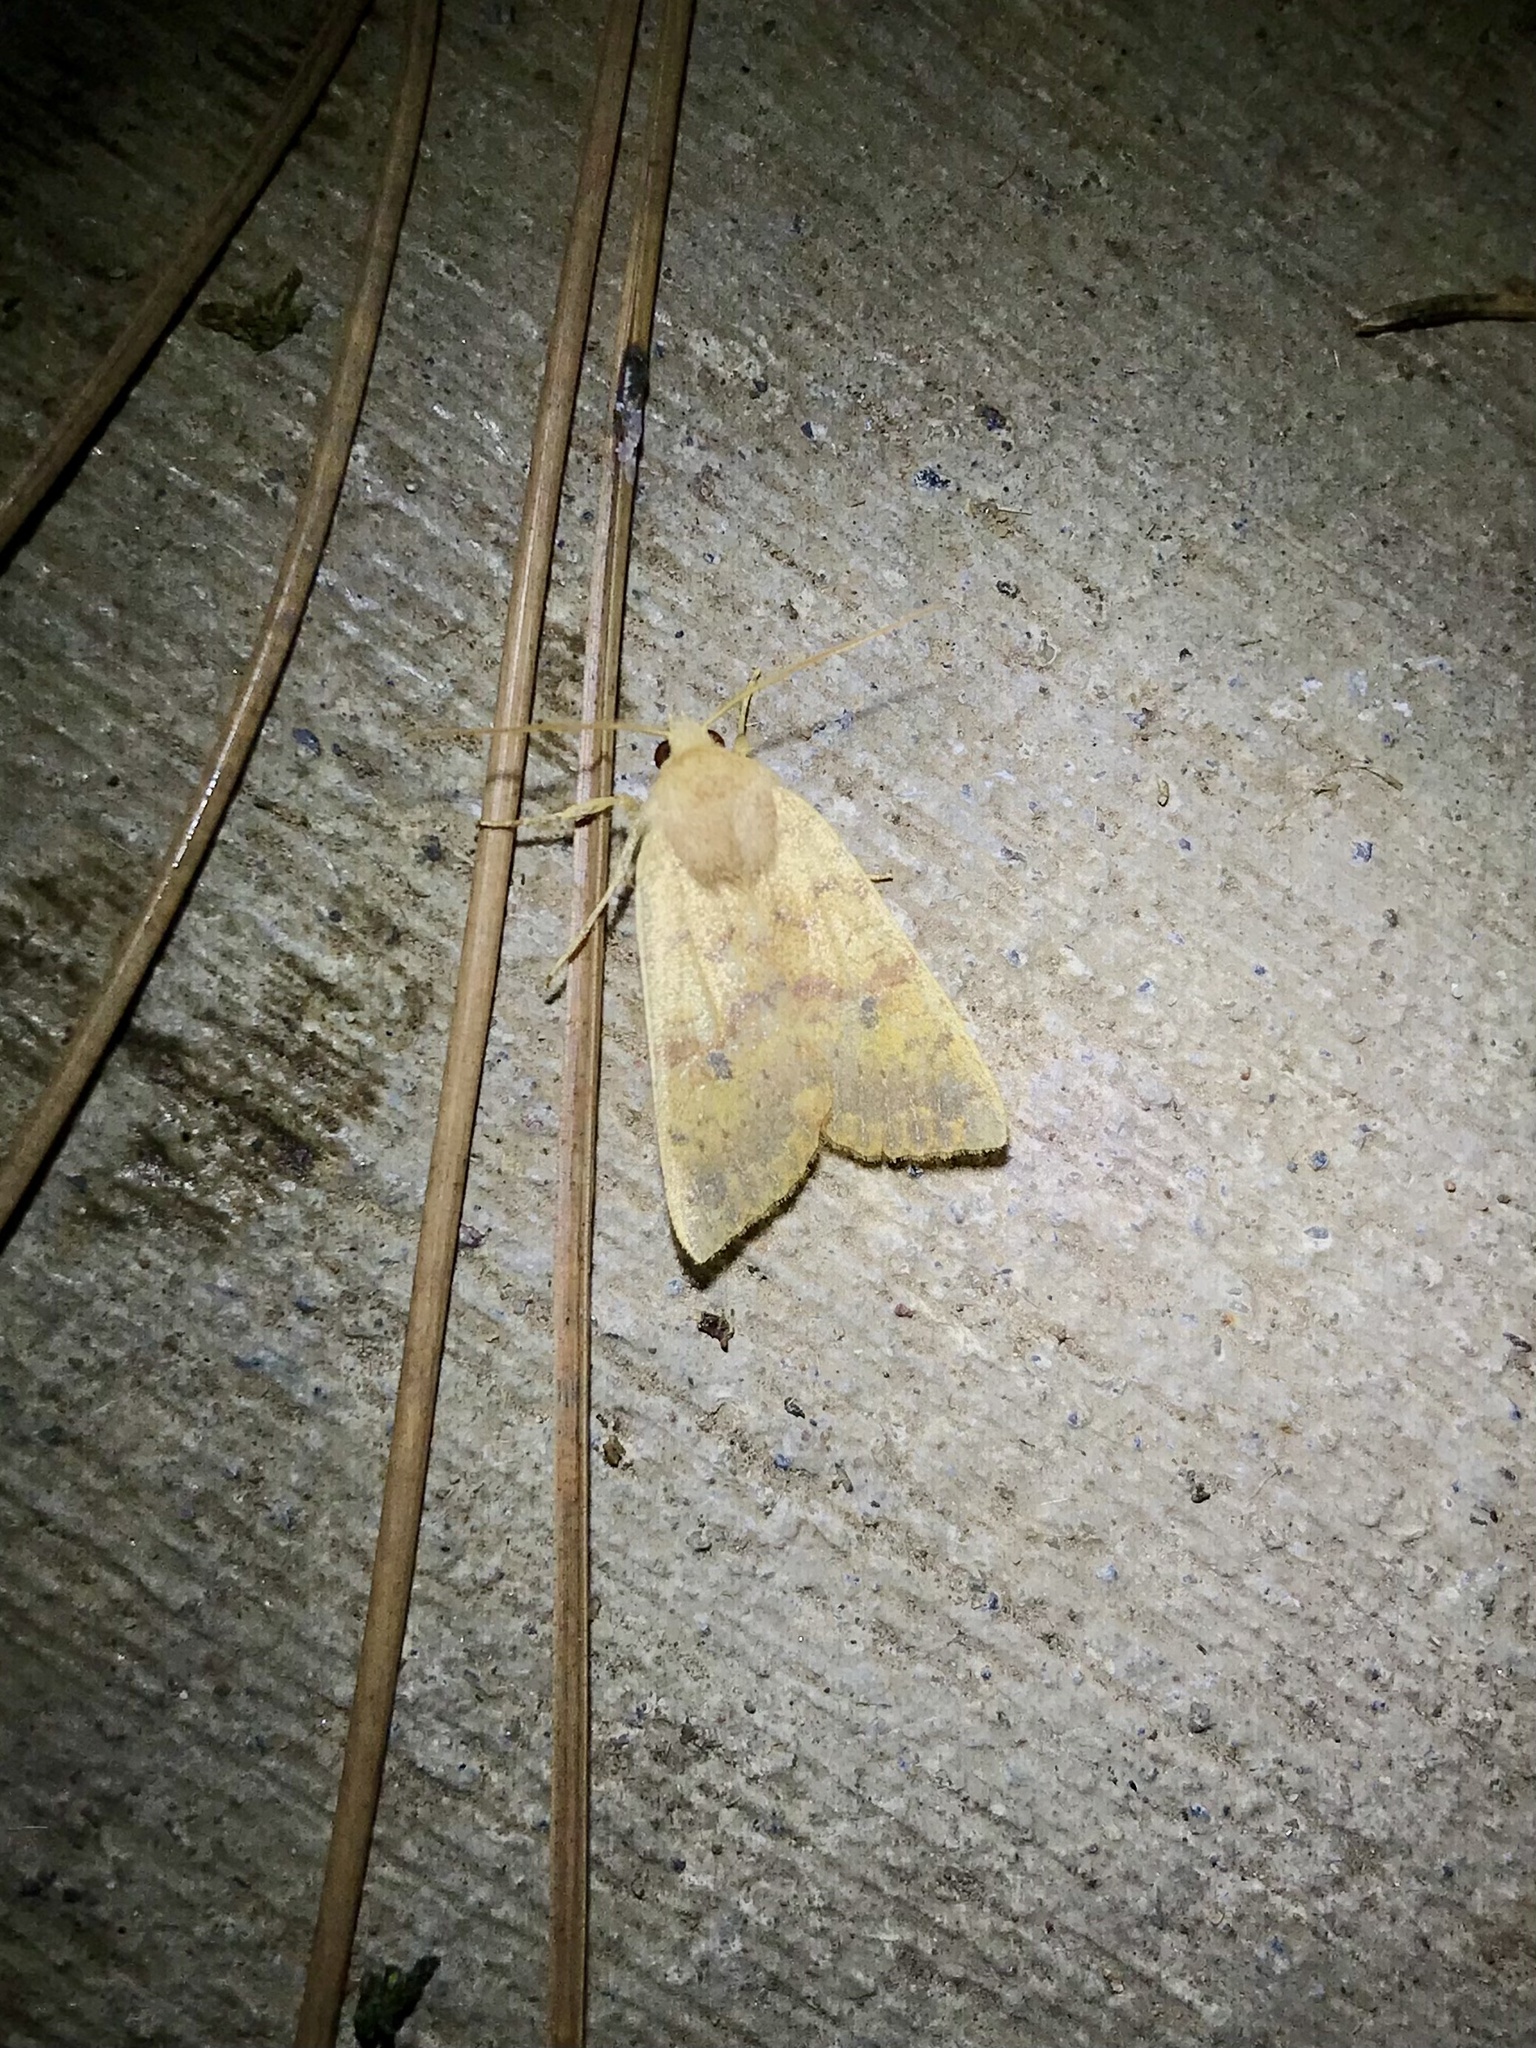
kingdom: Animalia
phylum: Arthropoda
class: Insecta
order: Lepidoptera
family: Noctuidae
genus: Agrochola
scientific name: Agrochola bicolorago
